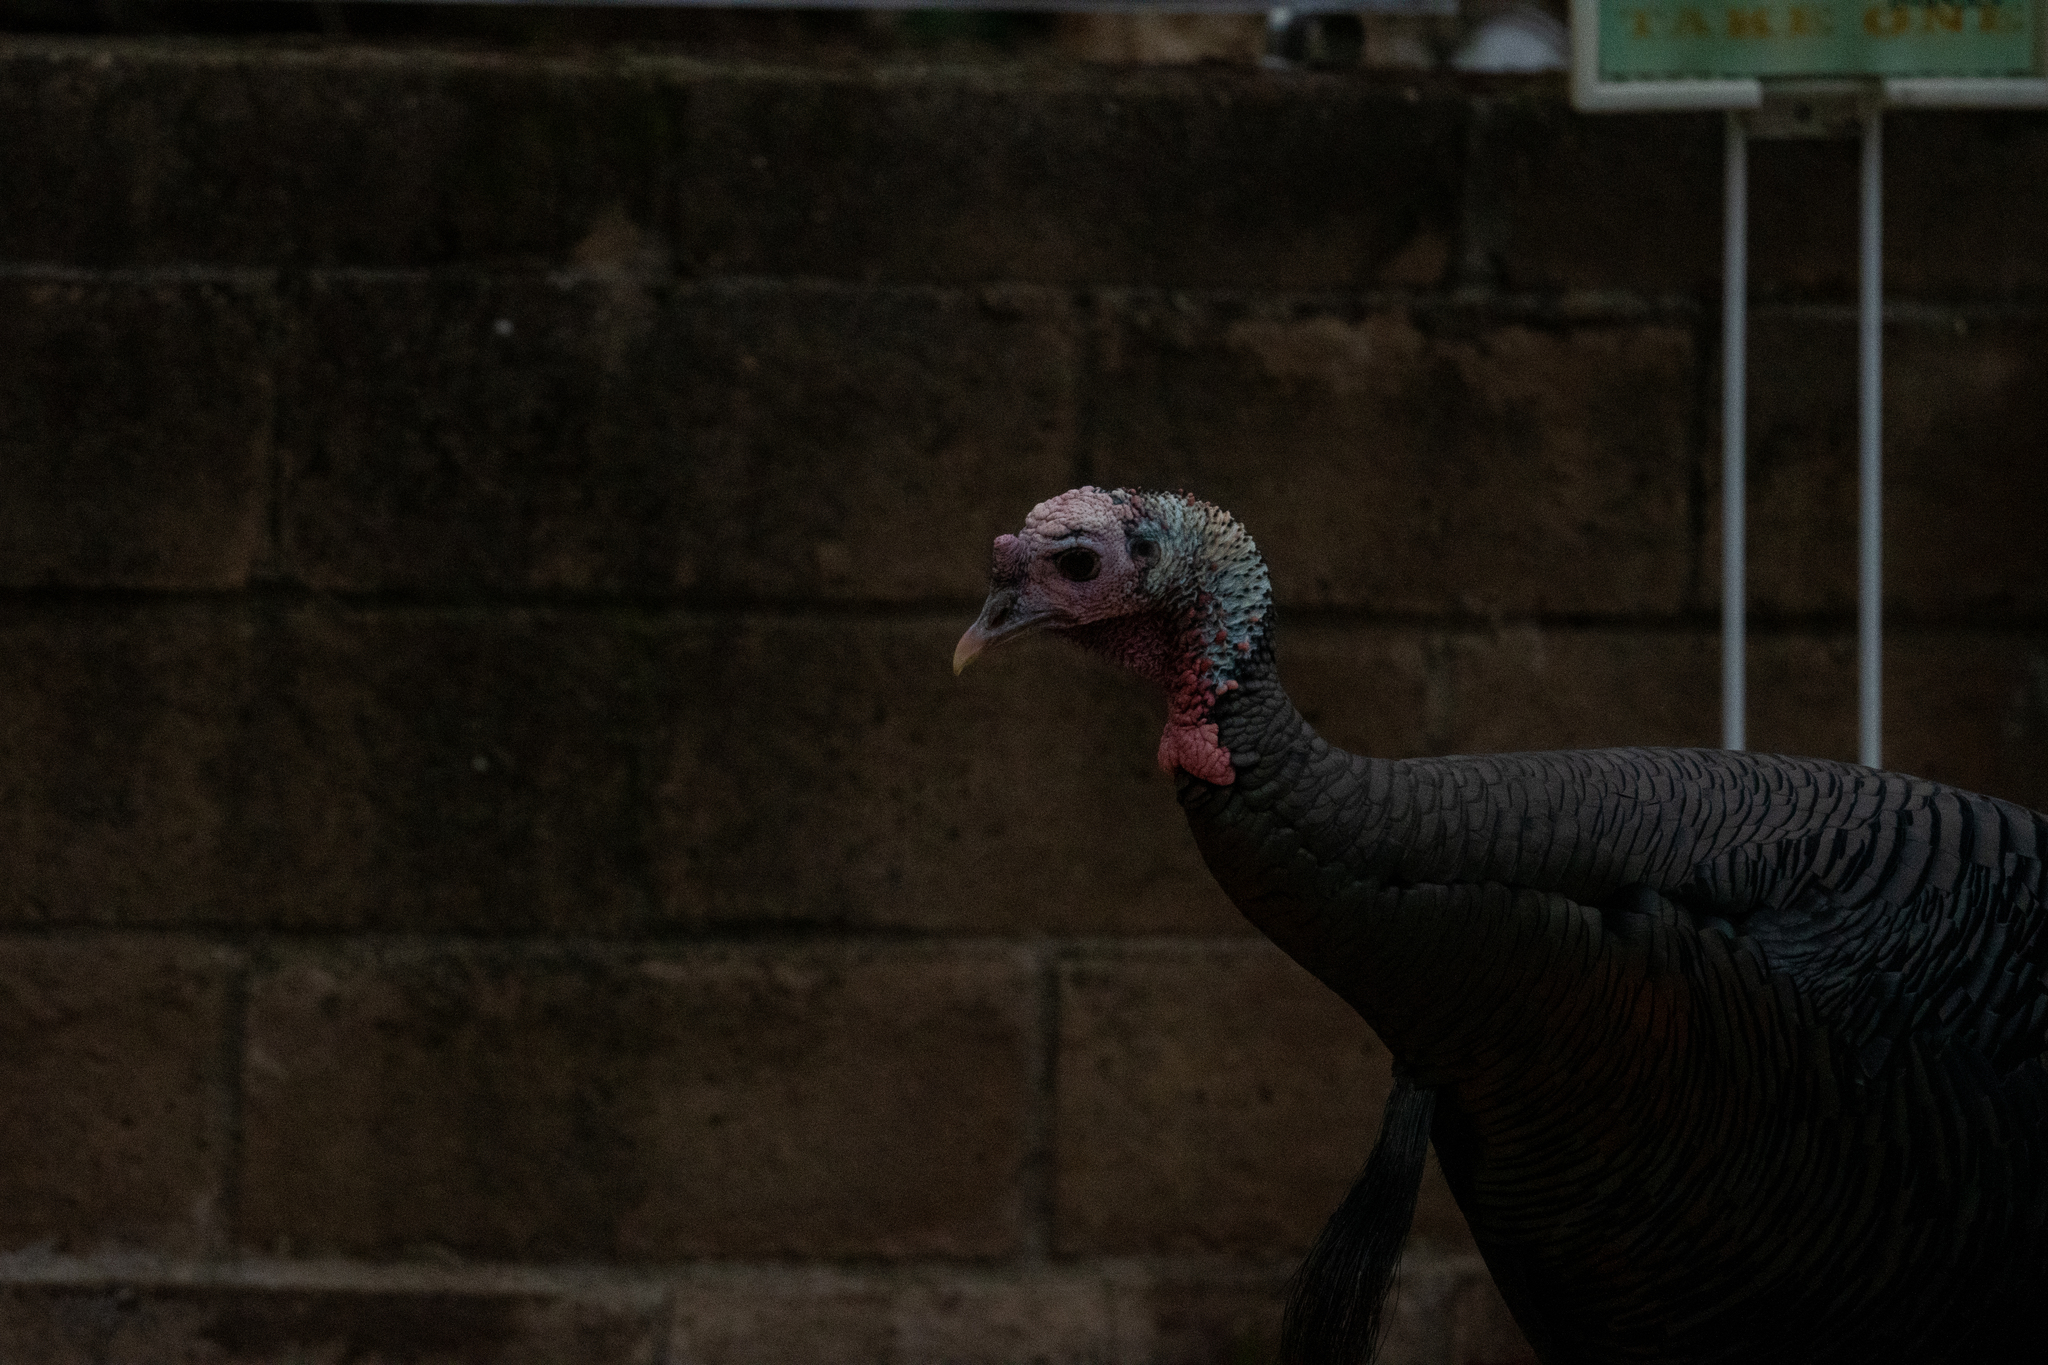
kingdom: Animalia
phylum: Chordata
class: Aves
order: Galliformes
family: Phasianidae
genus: Meleagris
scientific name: Meleagris gallopavo
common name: Wild turkey
